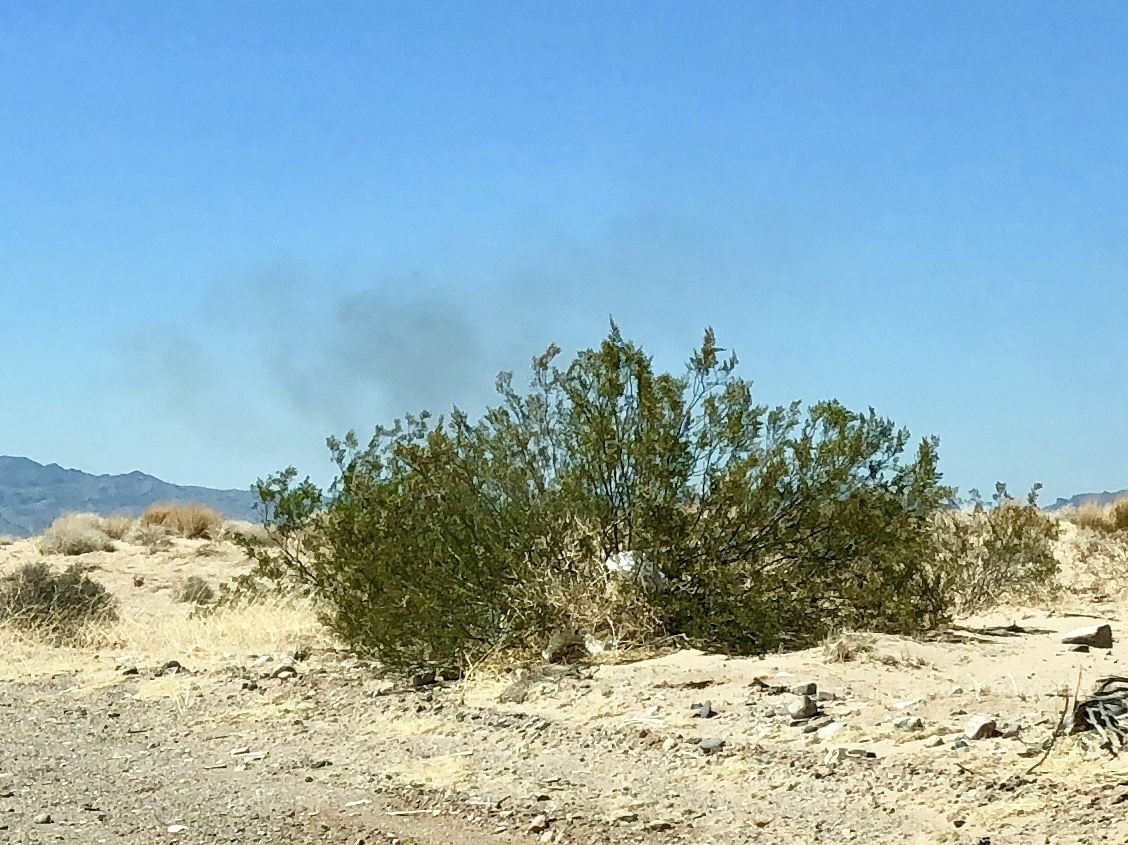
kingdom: Plantae
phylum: Tracheophyta
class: Magnoliopsida
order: Zygophyllales
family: Zygophyllaceae
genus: Larrea
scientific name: Larrea tridentata
